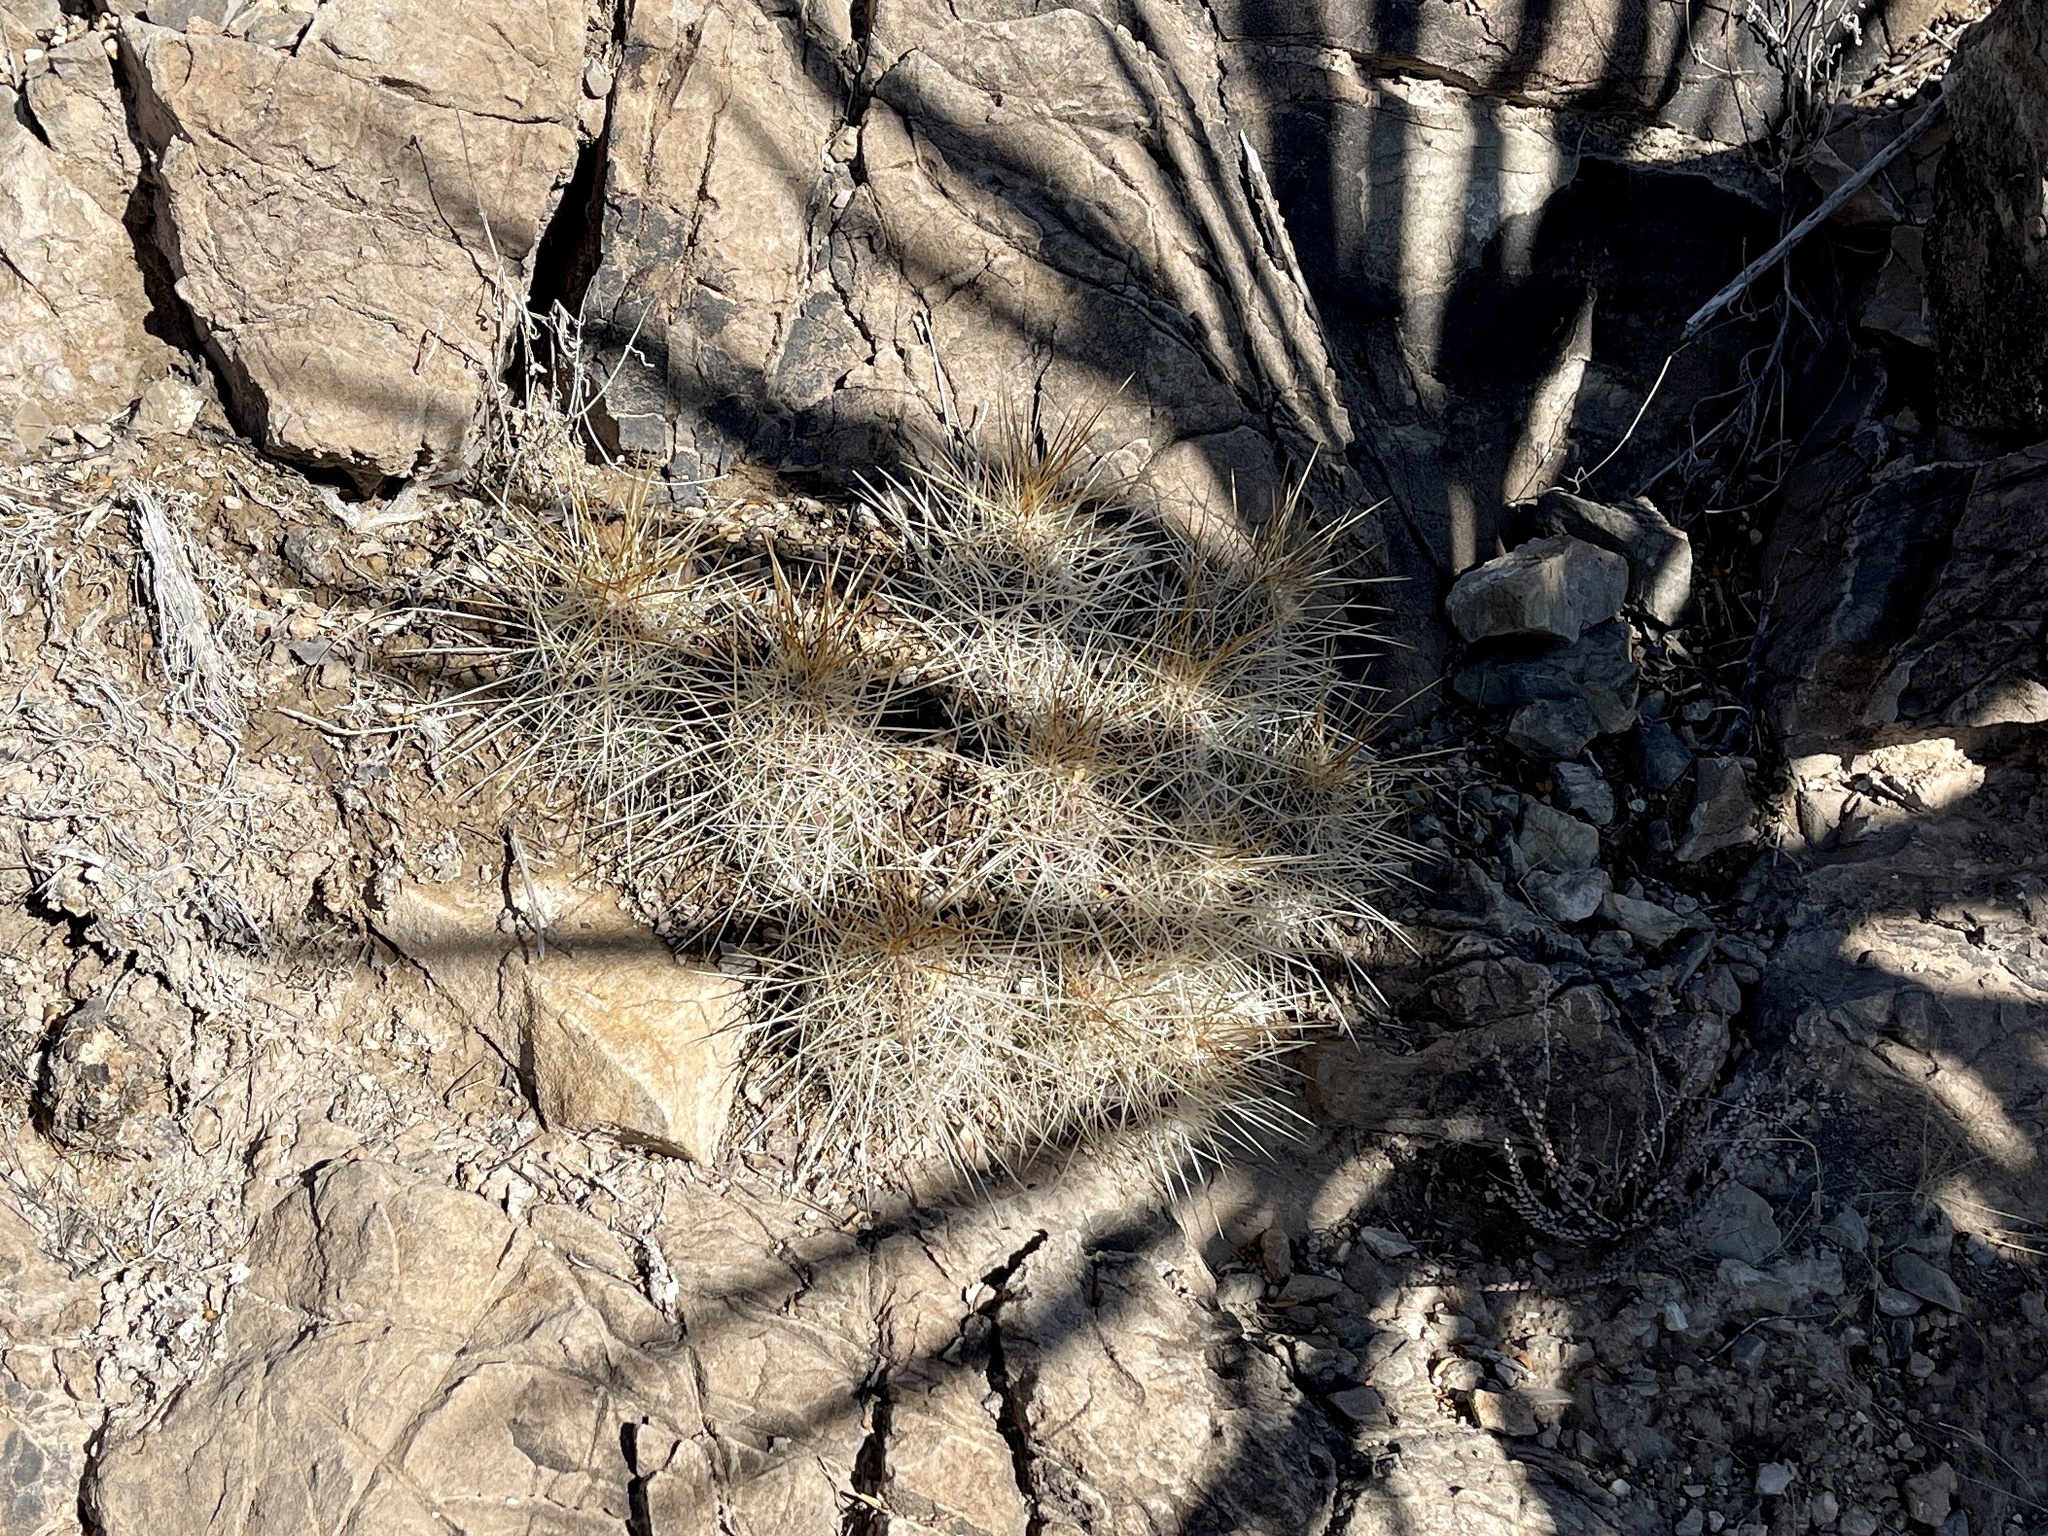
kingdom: Plantae
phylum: Tracheophyta
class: Magnoliopsida
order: Caryophyllales
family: Cactaceae
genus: Echinocereus
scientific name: Echinocereus stramineus
